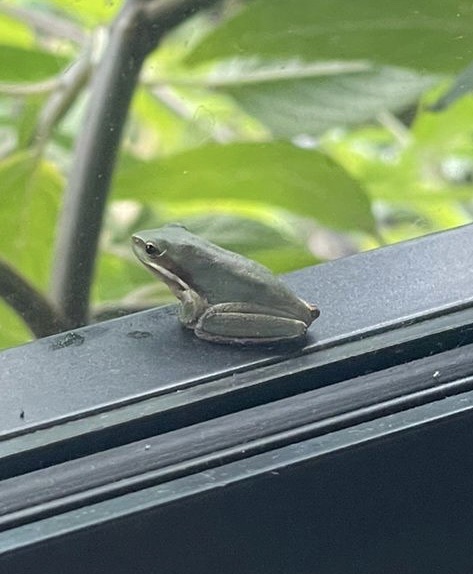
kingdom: Animalia
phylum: Chordata
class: Amphibia
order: Anura
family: Pelodryadidae
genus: Litoria
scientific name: Litoria fallax
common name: Eastern dwarf treefrog
